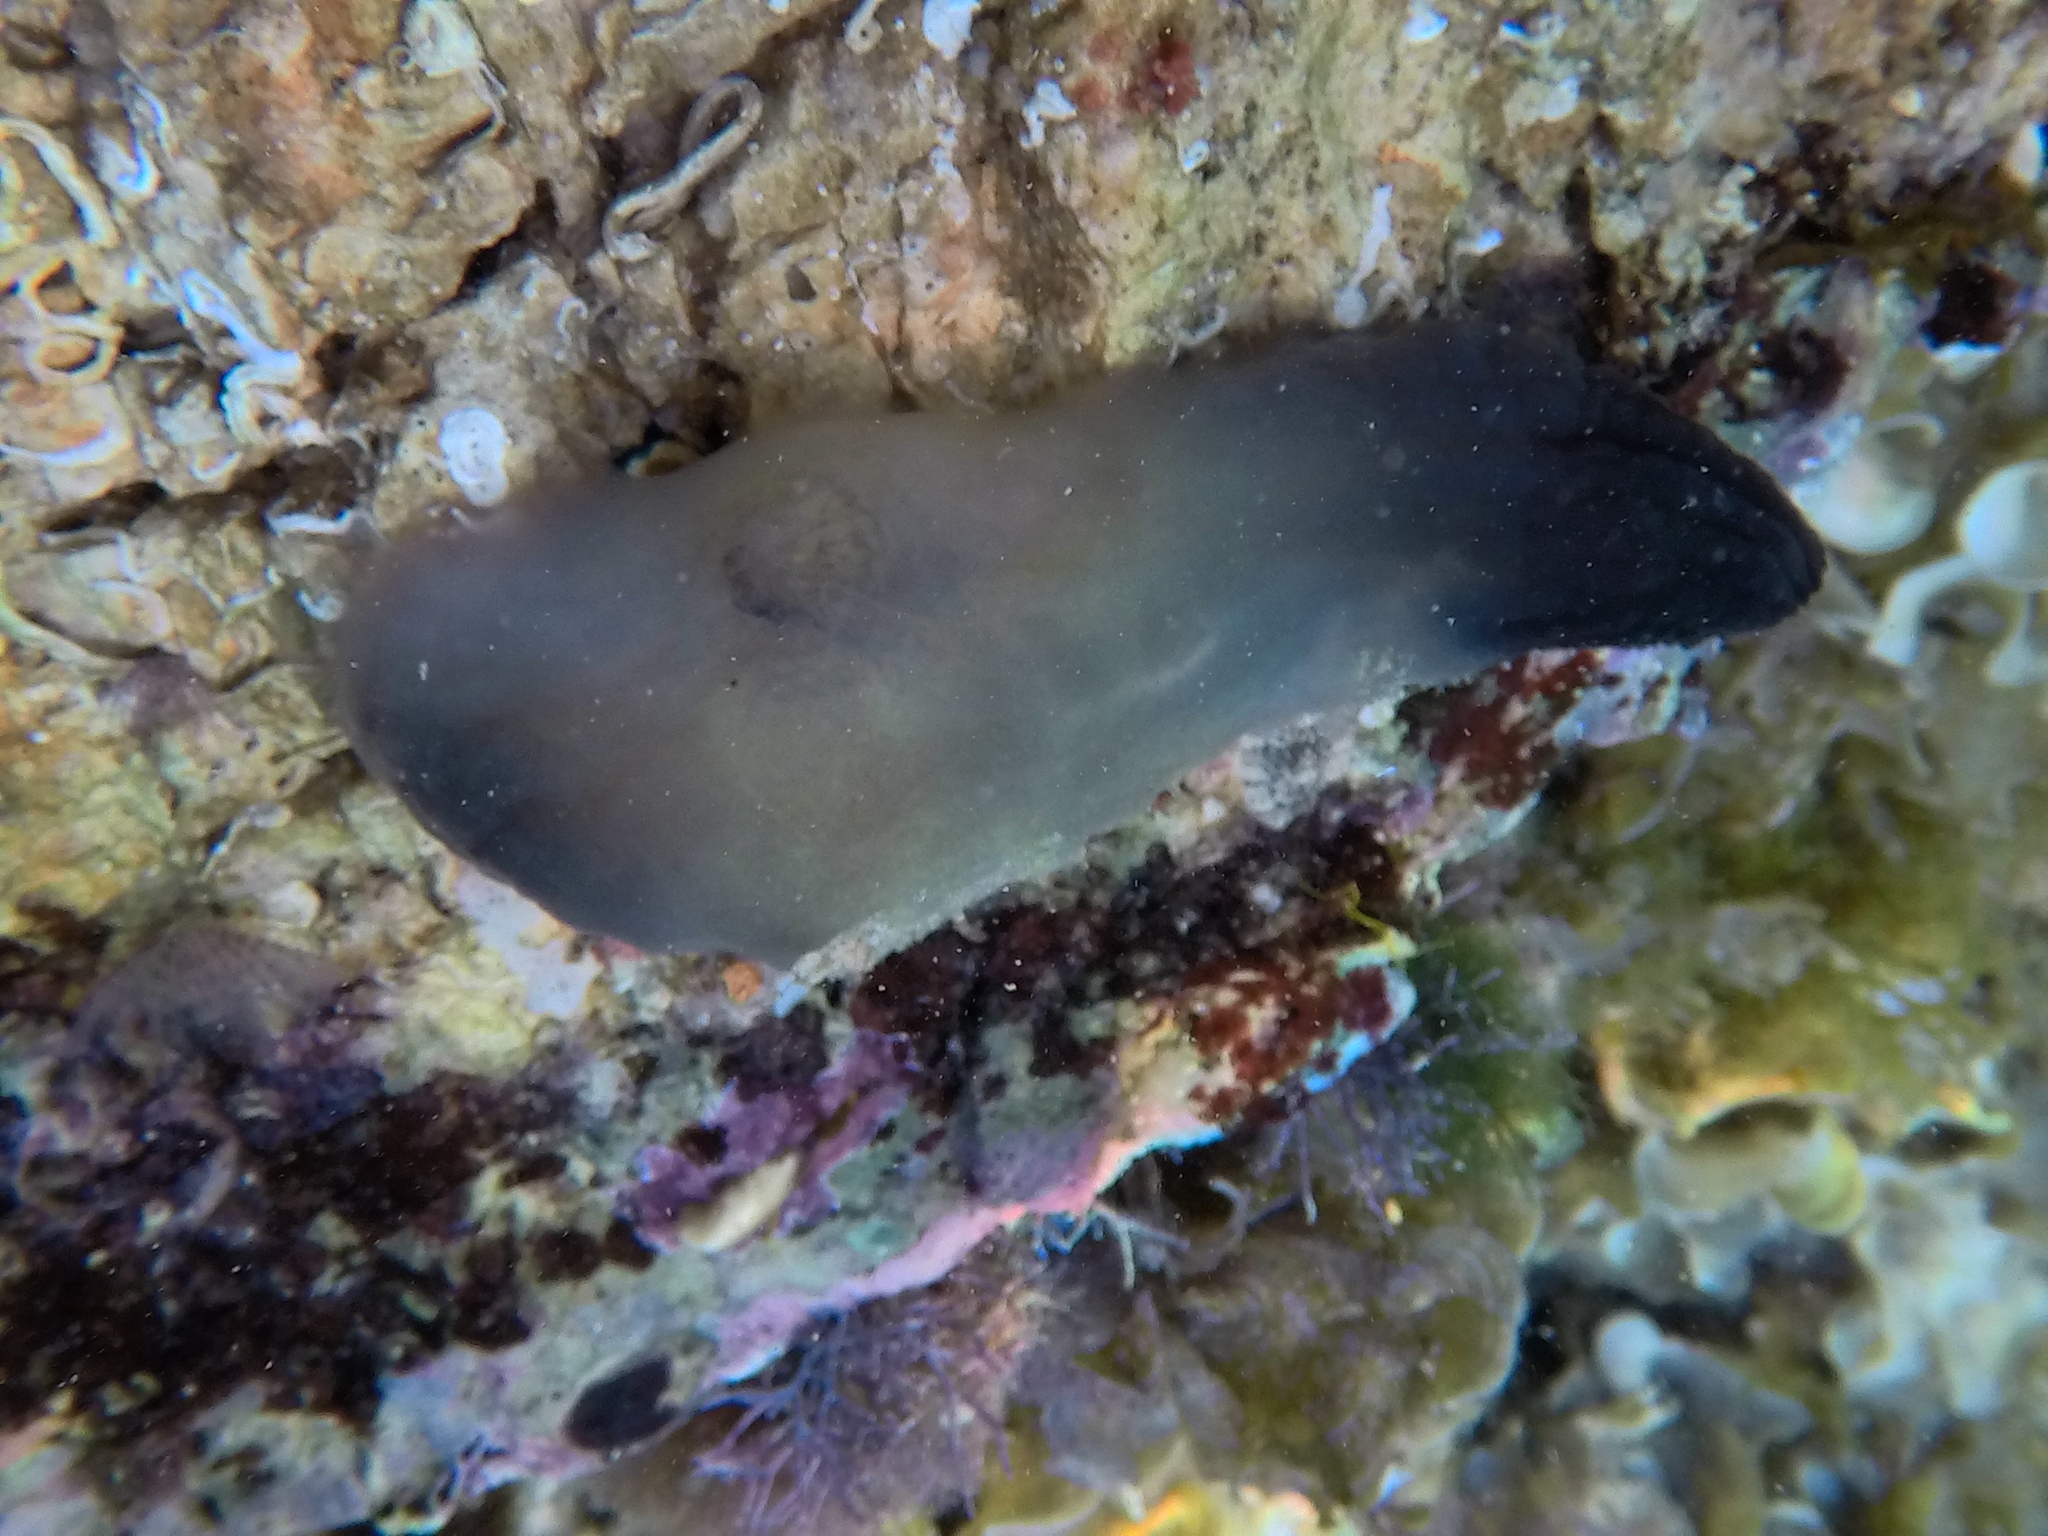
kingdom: Animalia
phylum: Chordata
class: Ascidiacea
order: Phlebobranchia
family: Ascidiidae
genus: Phallusia
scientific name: Phallusia fumigata
